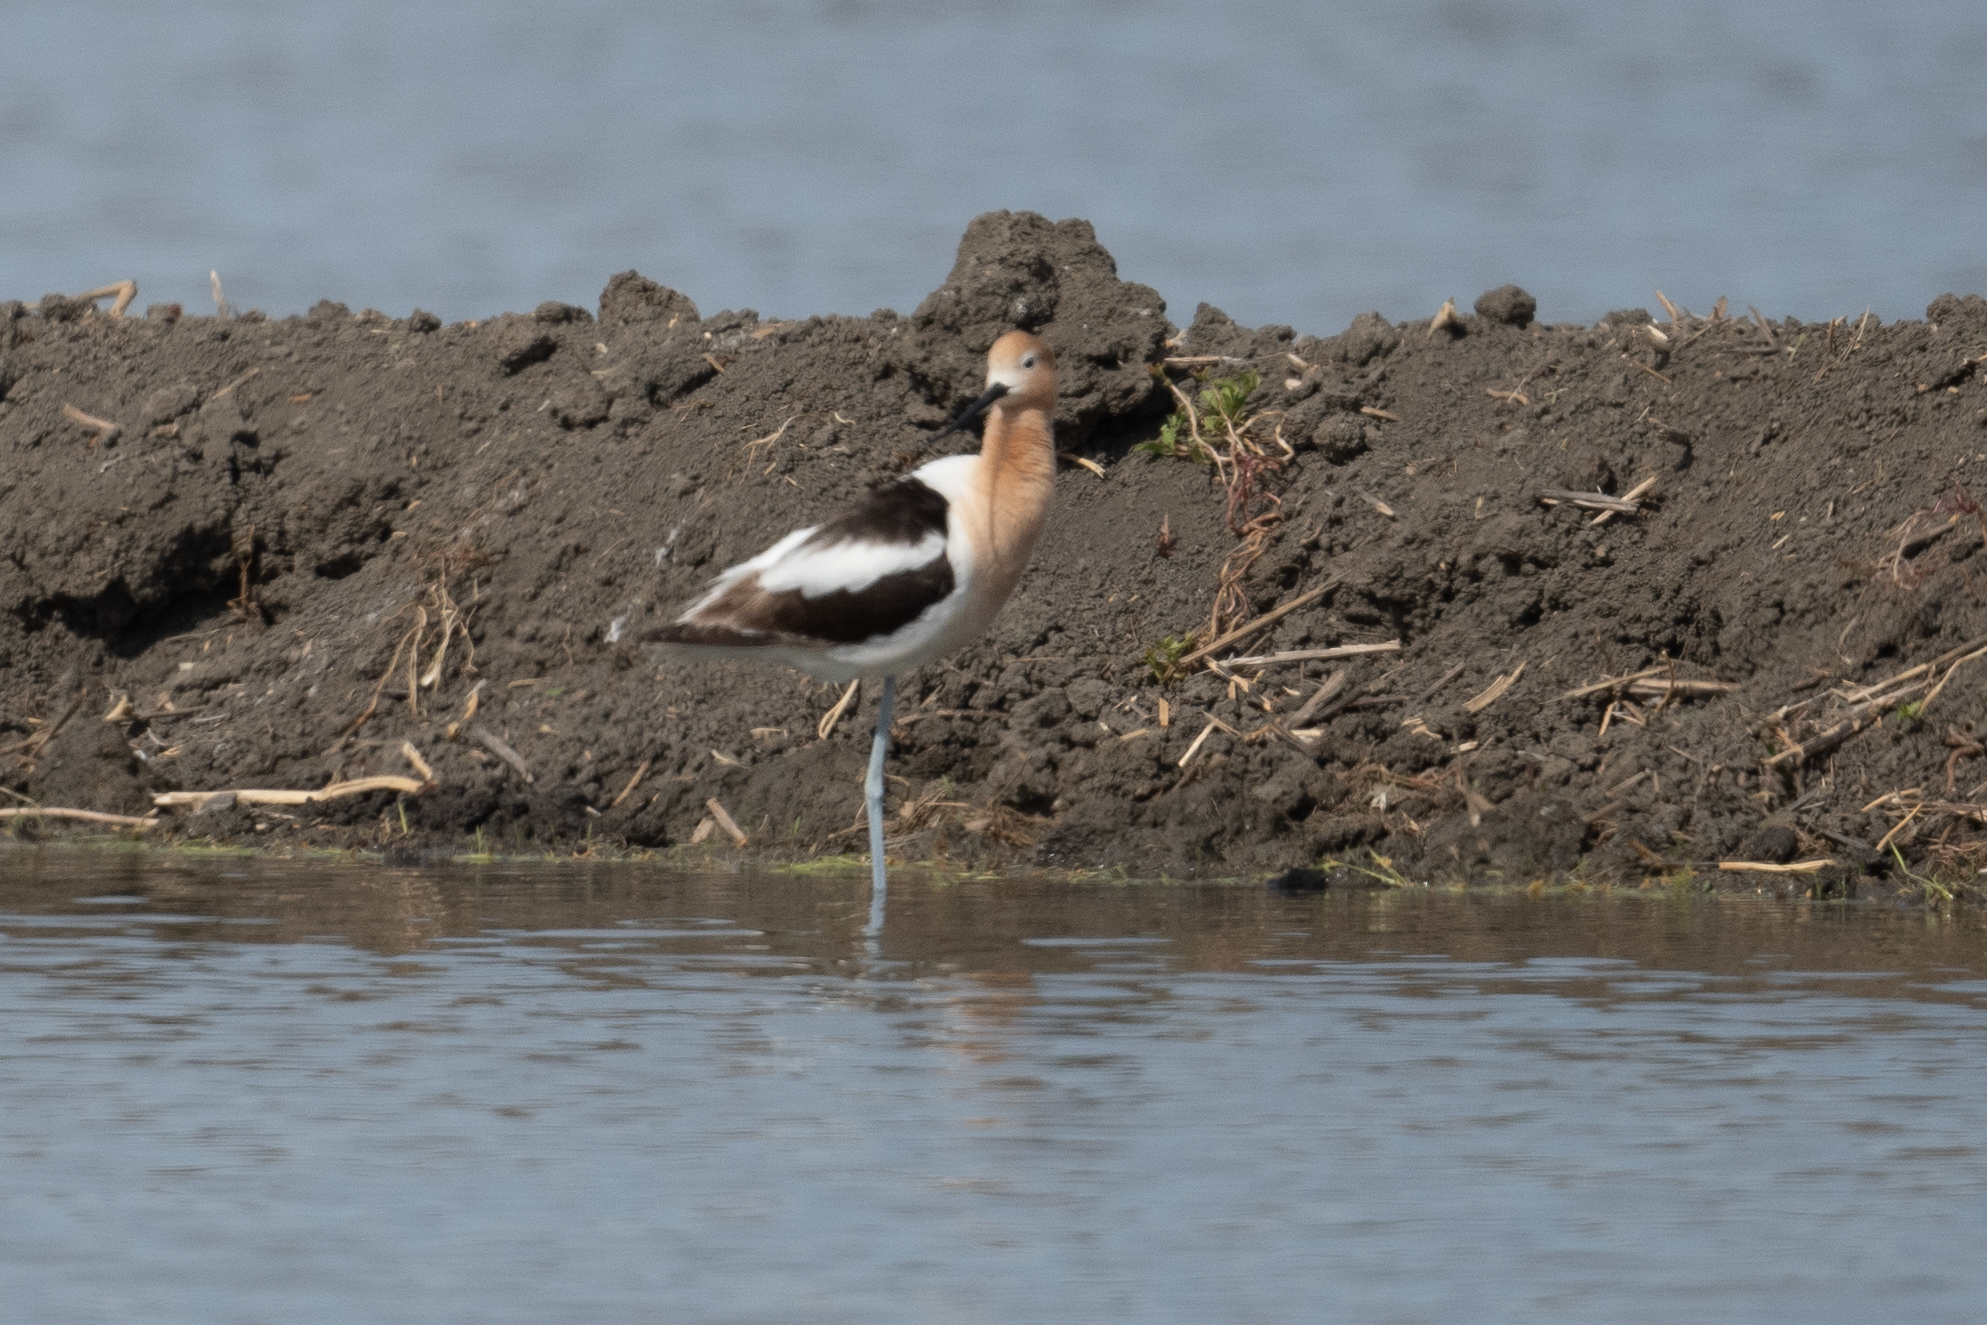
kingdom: Animalia
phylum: Chordata
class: Aves
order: Charadriiformes
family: Recurvirostridae
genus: Recurvirostra
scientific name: Recurvirostra americana
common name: American avocet
